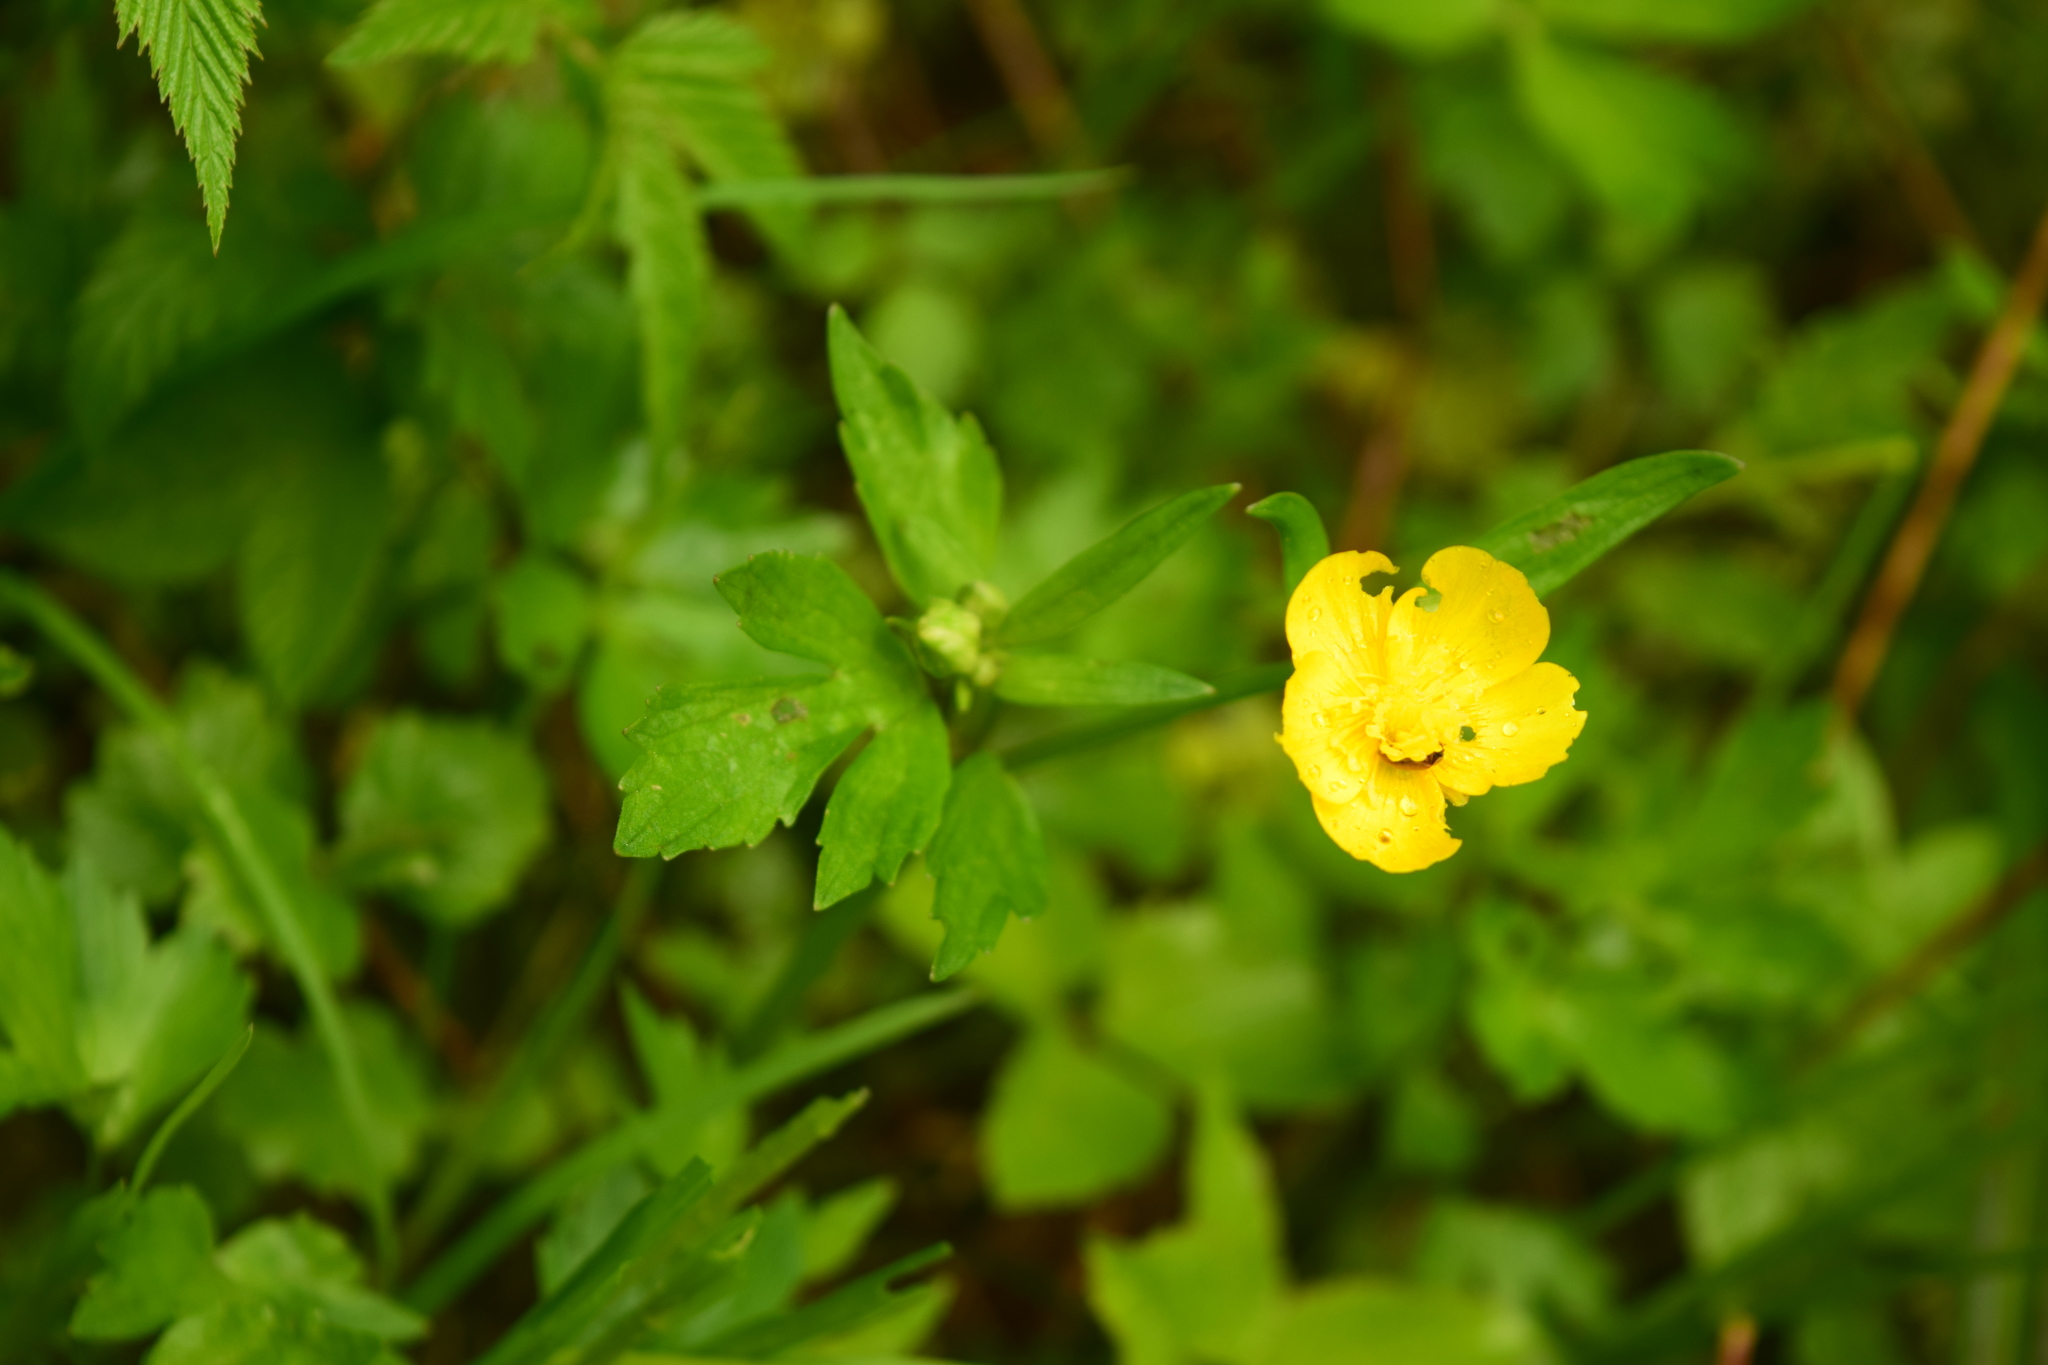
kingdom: Plantae
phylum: Tracheophyta
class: Magnoliopsida
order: Ranunculales
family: Ranunculaceae
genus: Ranunculus
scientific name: Ranunculus repens
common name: Creeping buttercup
